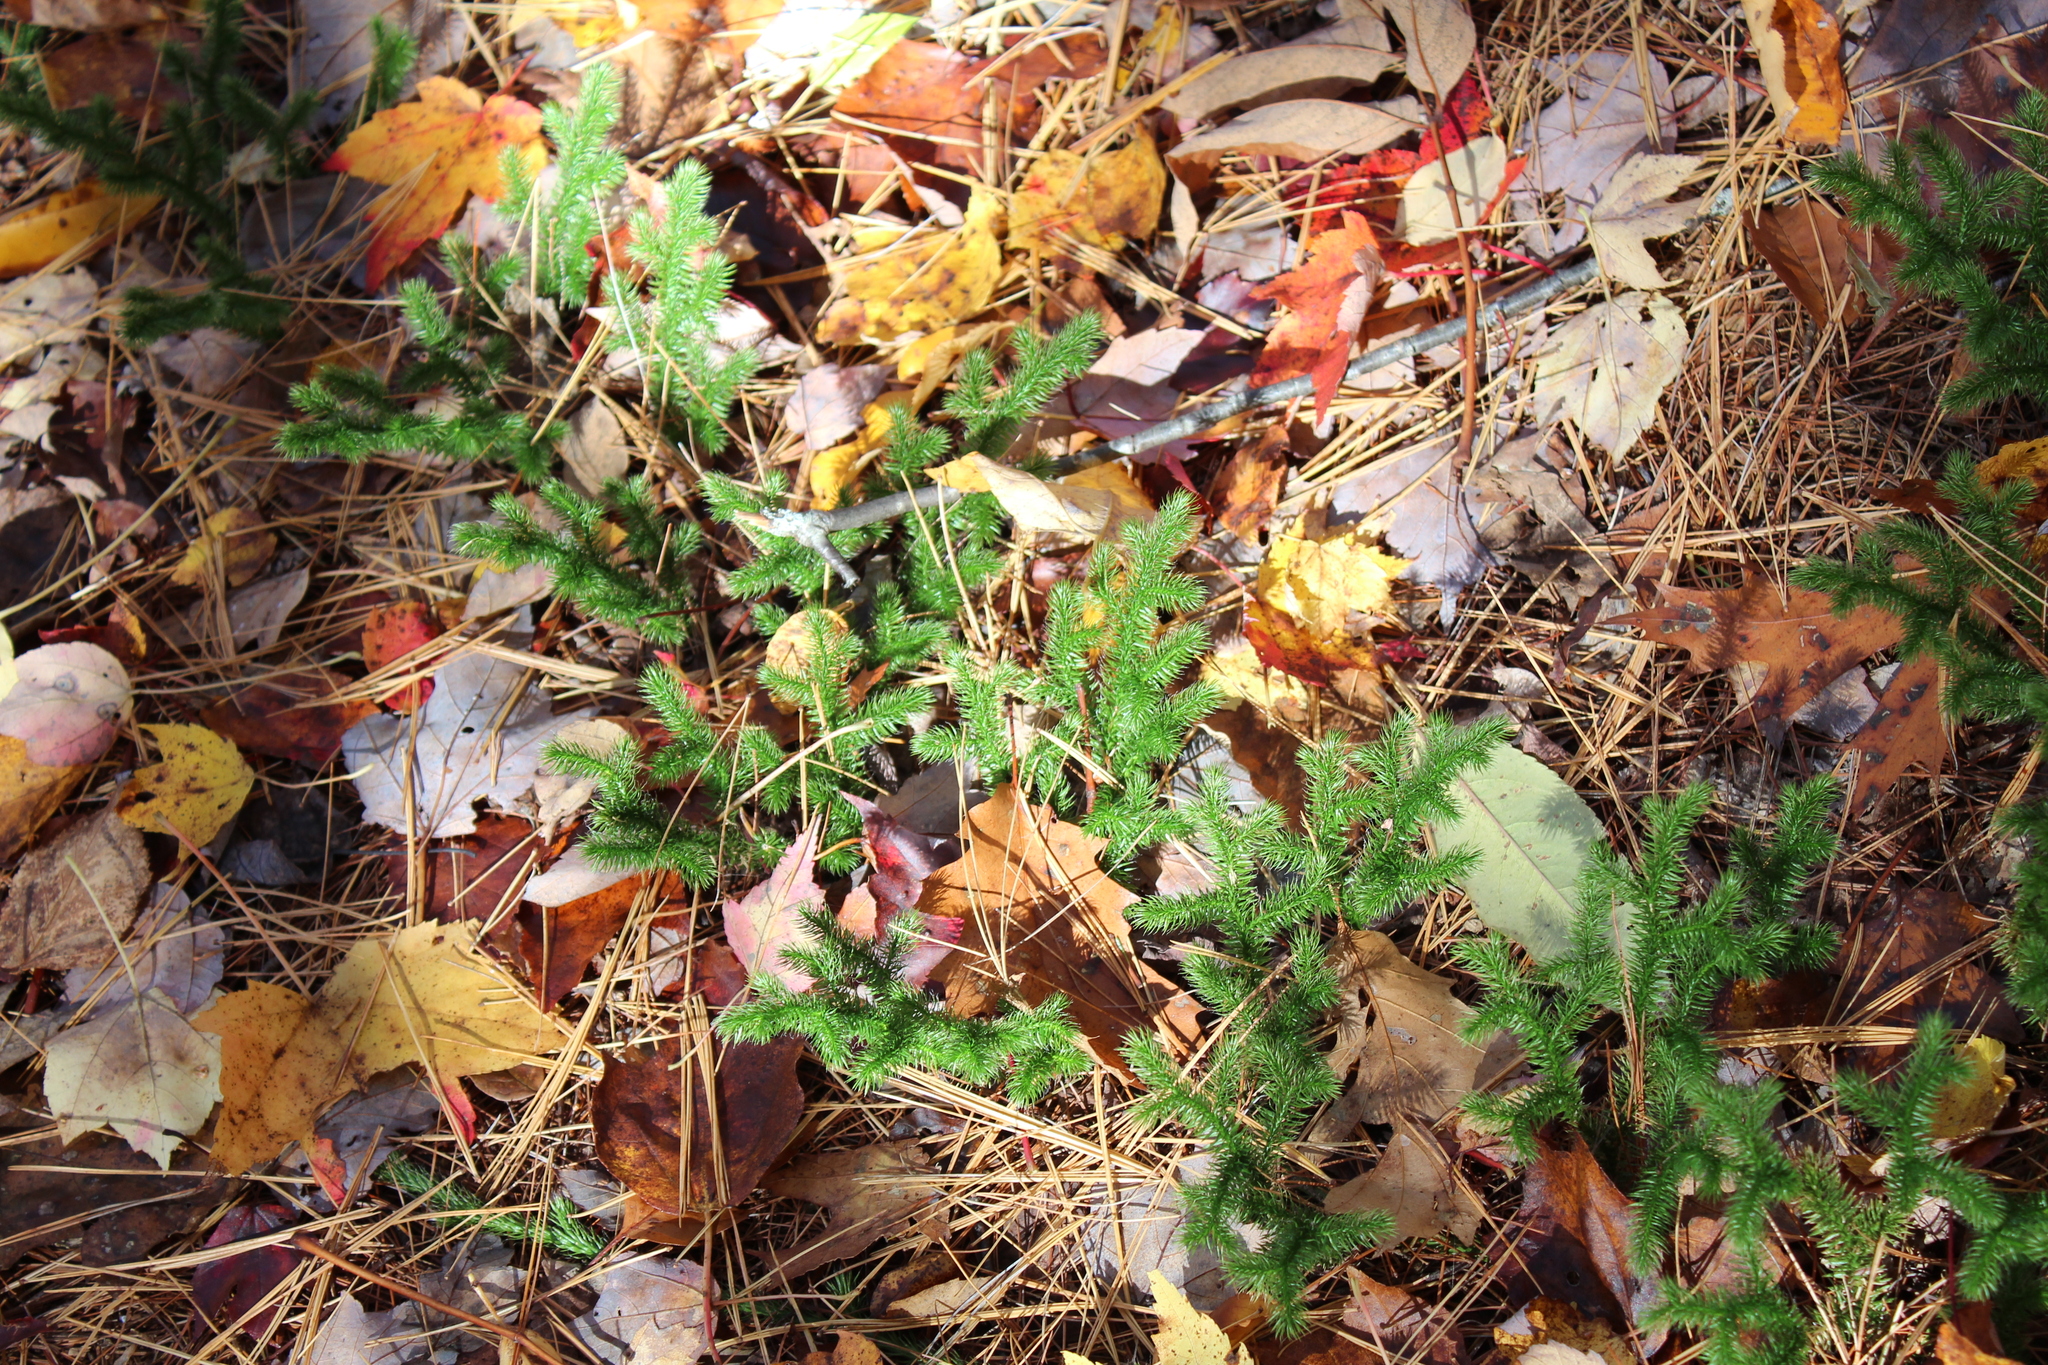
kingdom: Plantae
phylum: Tracheophyta
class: Lycopodiopsida
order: Lycopodiales
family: Lycopodiaceae
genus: Lycopodium
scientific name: Lycopodium clavatum
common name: Stag's-horn clubmoss
